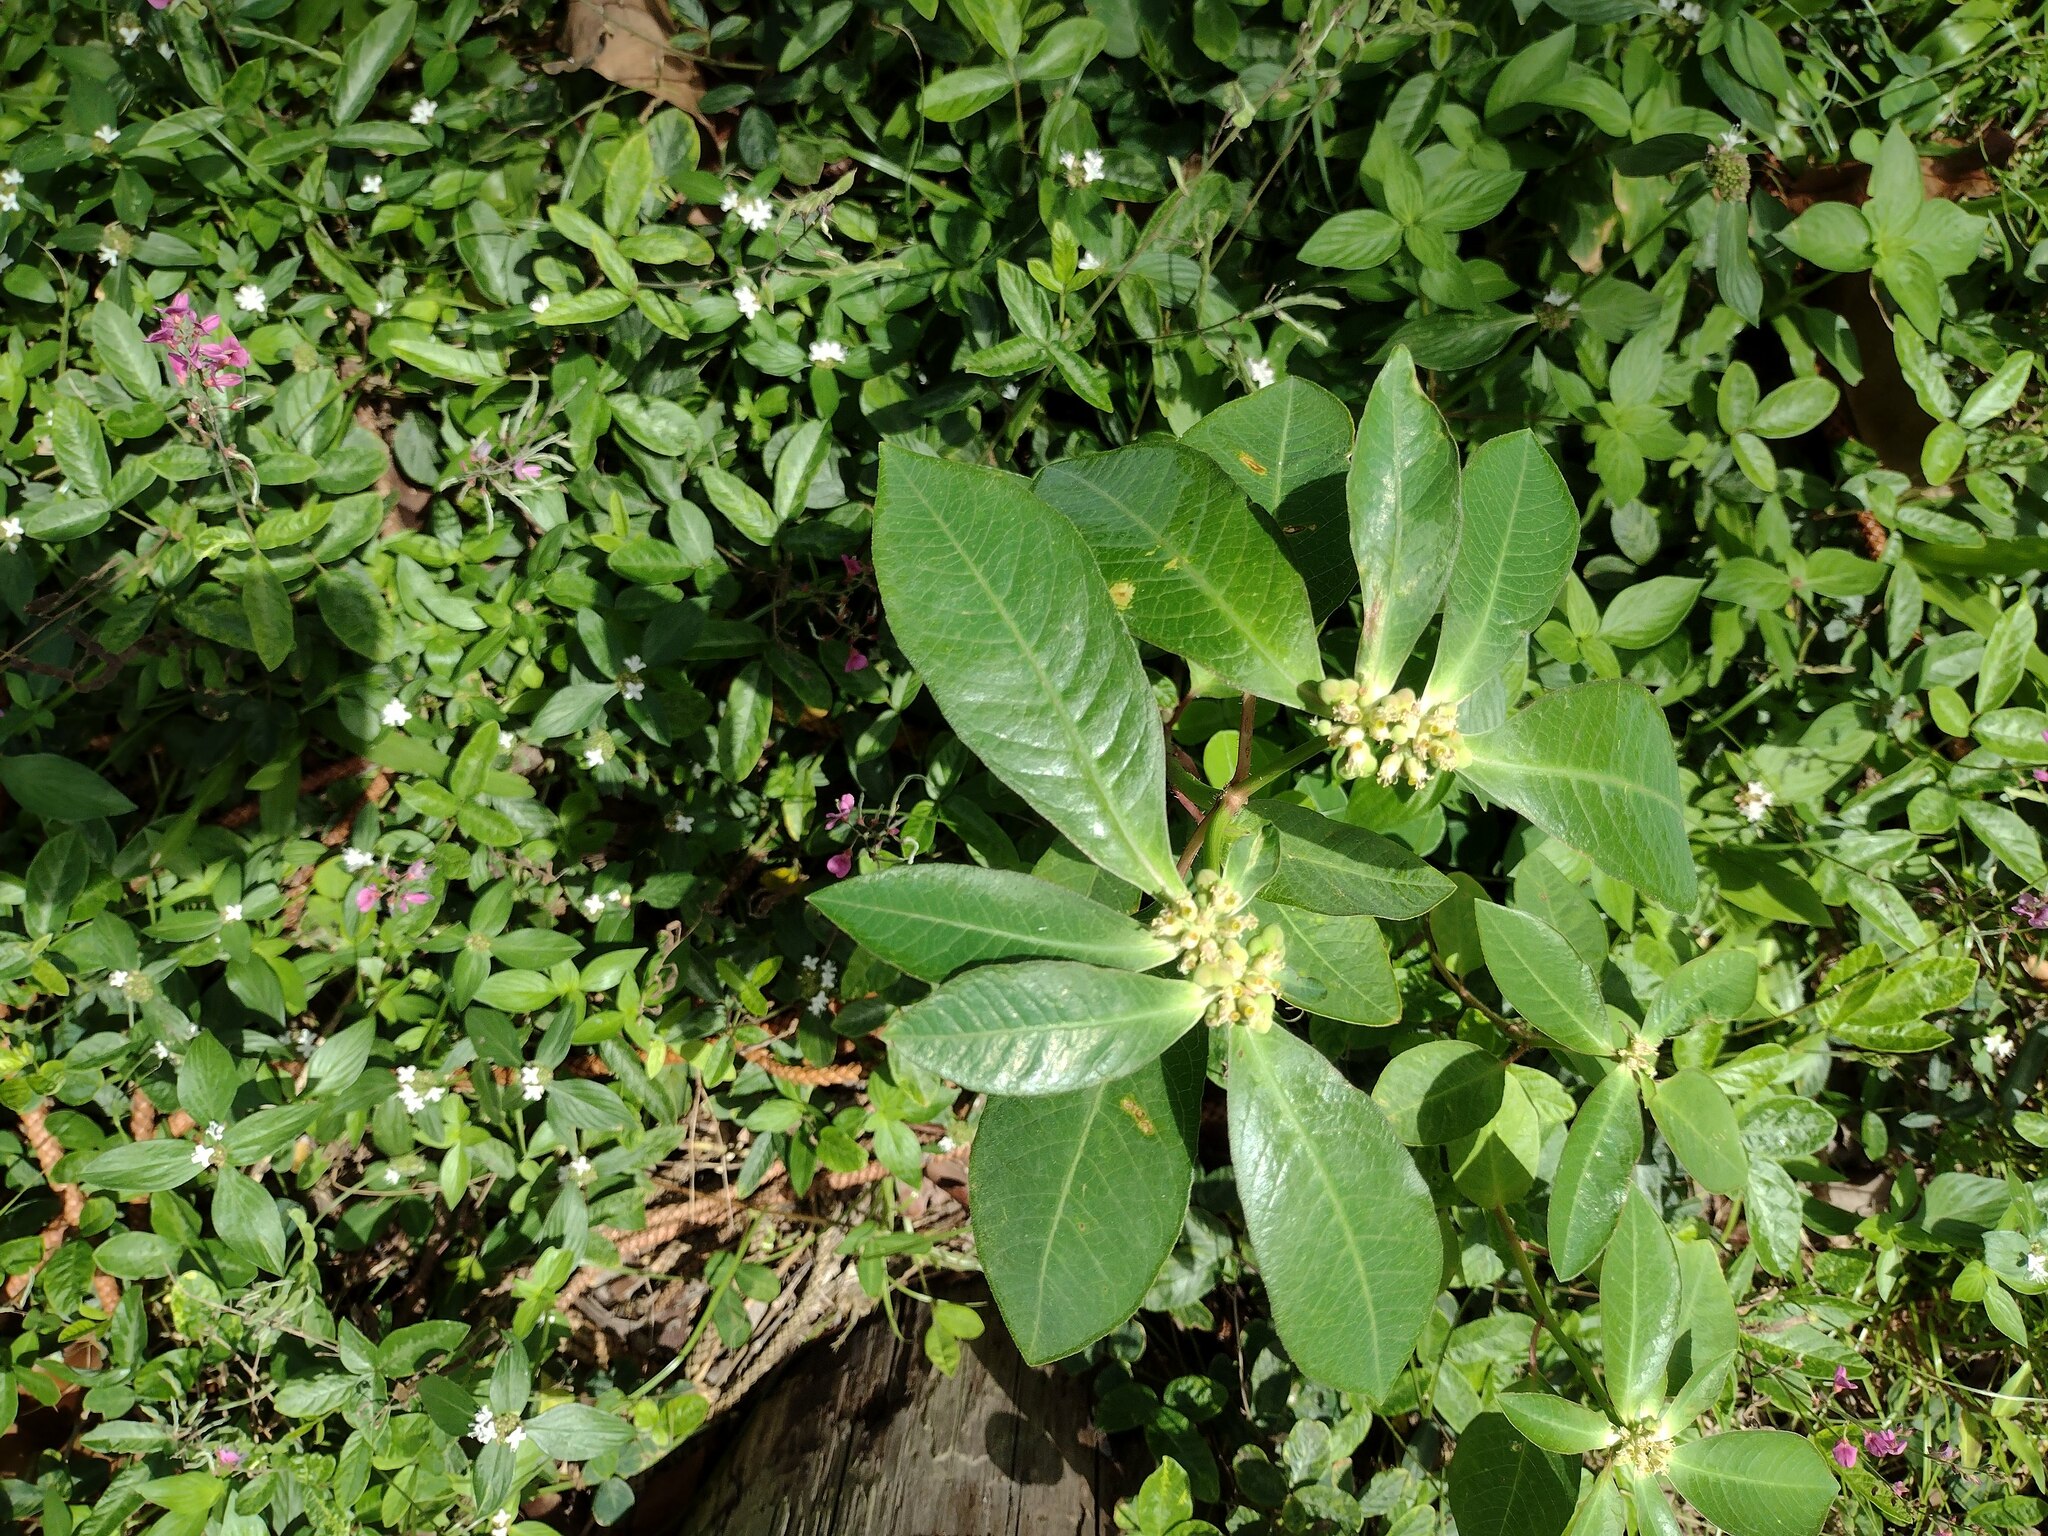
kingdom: Plantae
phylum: Tracheophyta
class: Magnoliopsida
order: Malpighiales
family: Euphorbiaceae
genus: Euphorbia
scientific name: Euphorbia heterophylla
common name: Mexican fireplant
